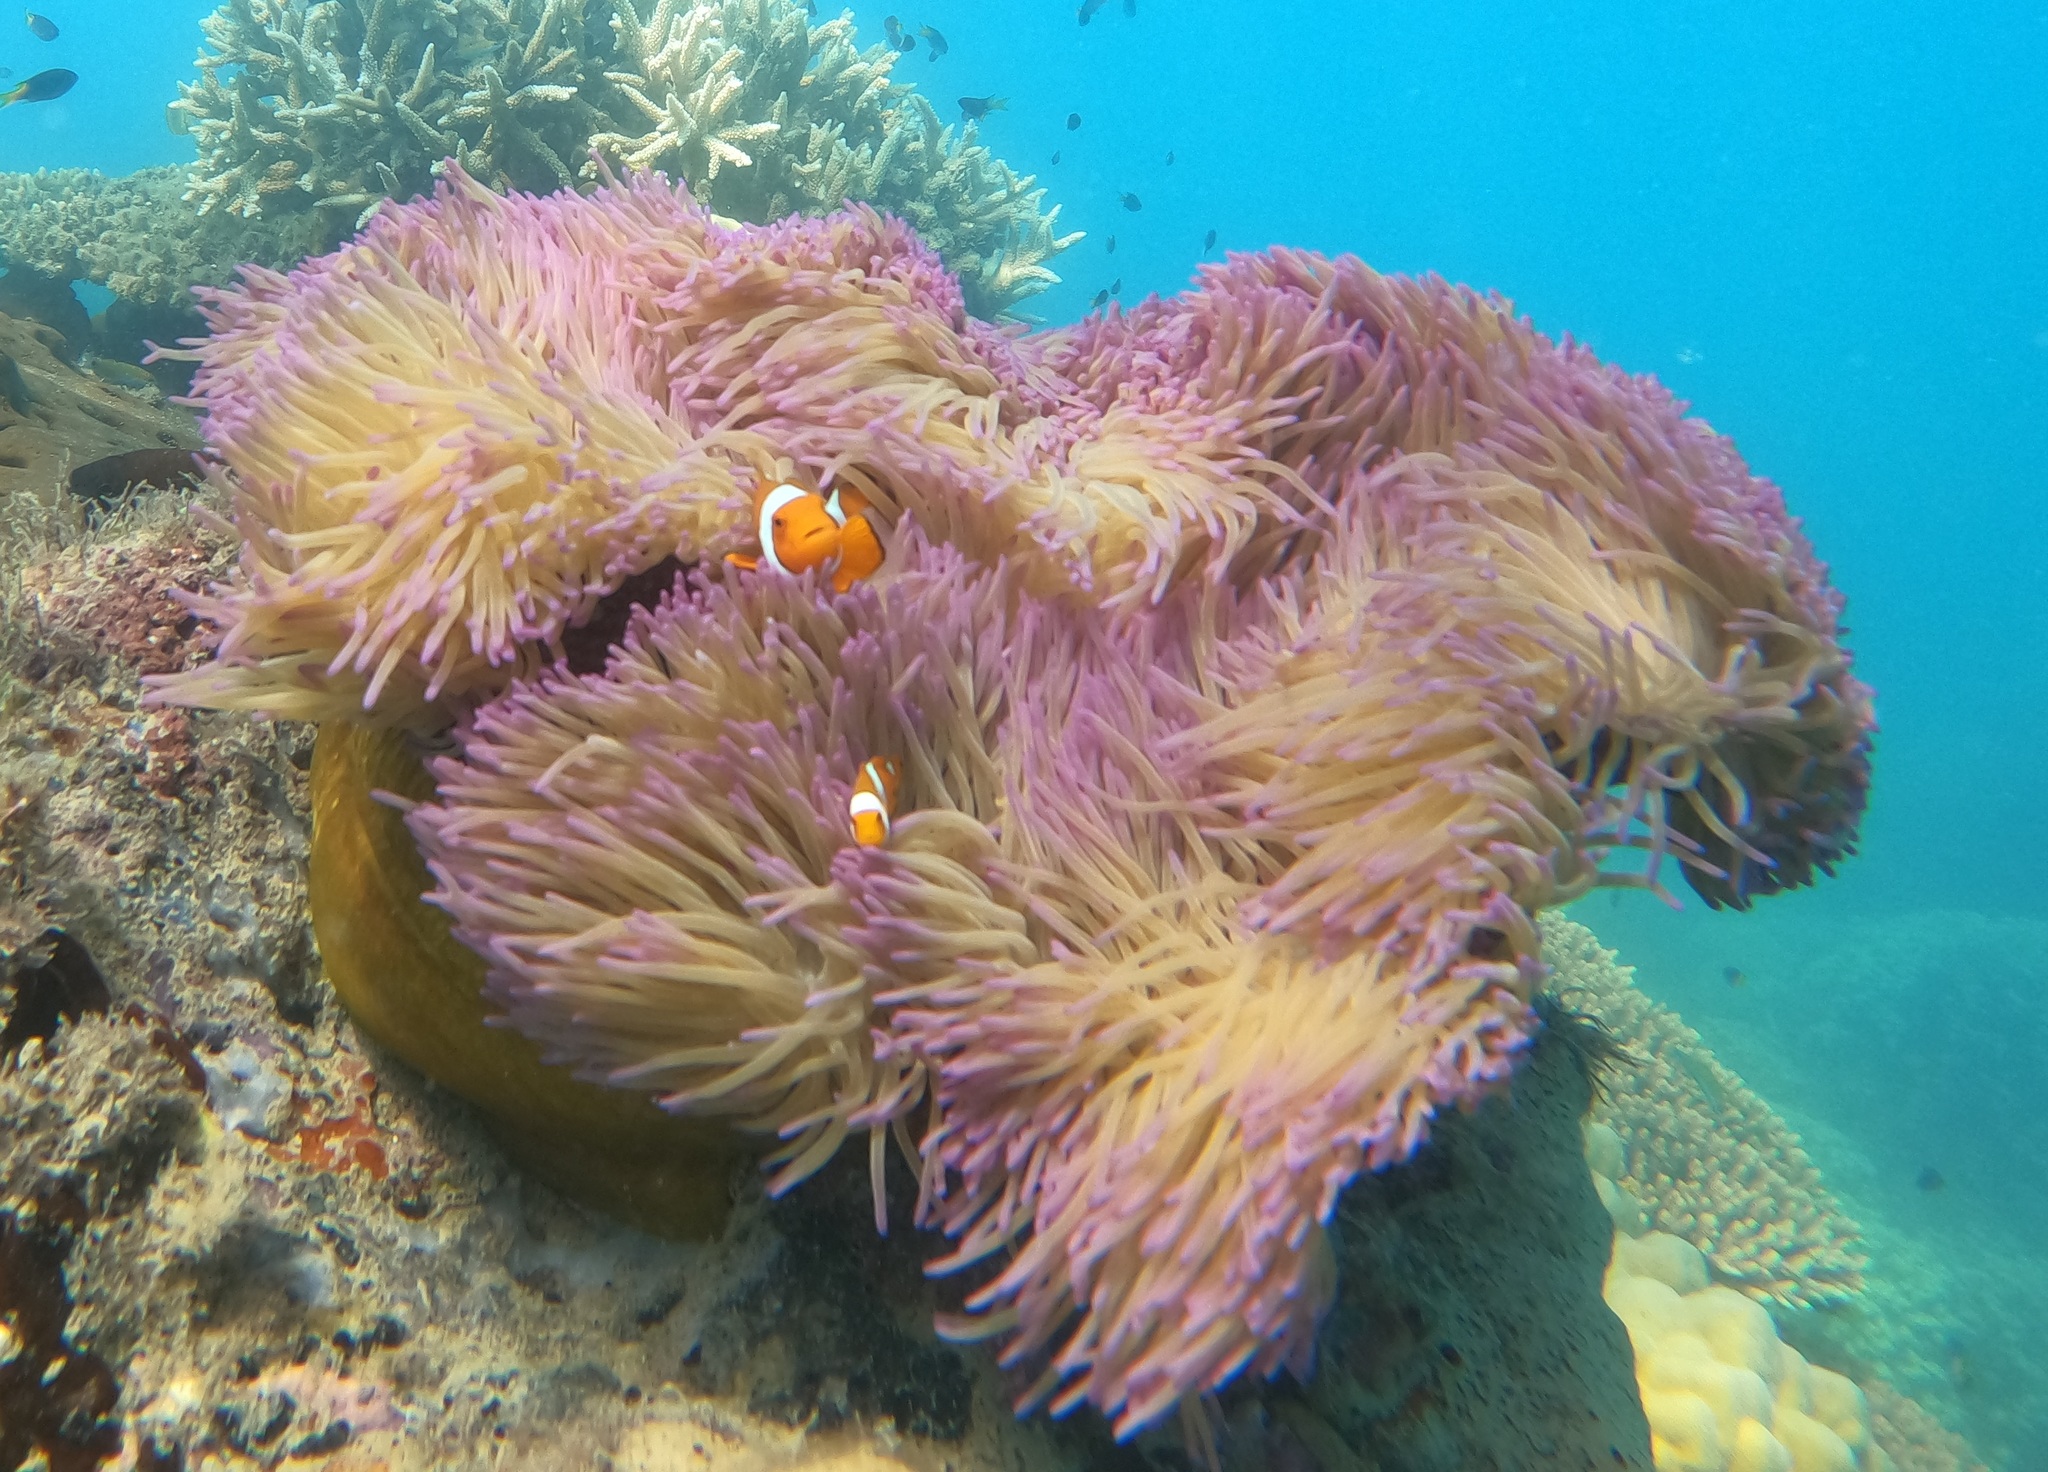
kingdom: Animalia
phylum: Chordata
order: Perciformes
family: Pomacentridae
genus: Amphiprion
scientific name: Amphiprion percula
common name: Clown anemonefish
